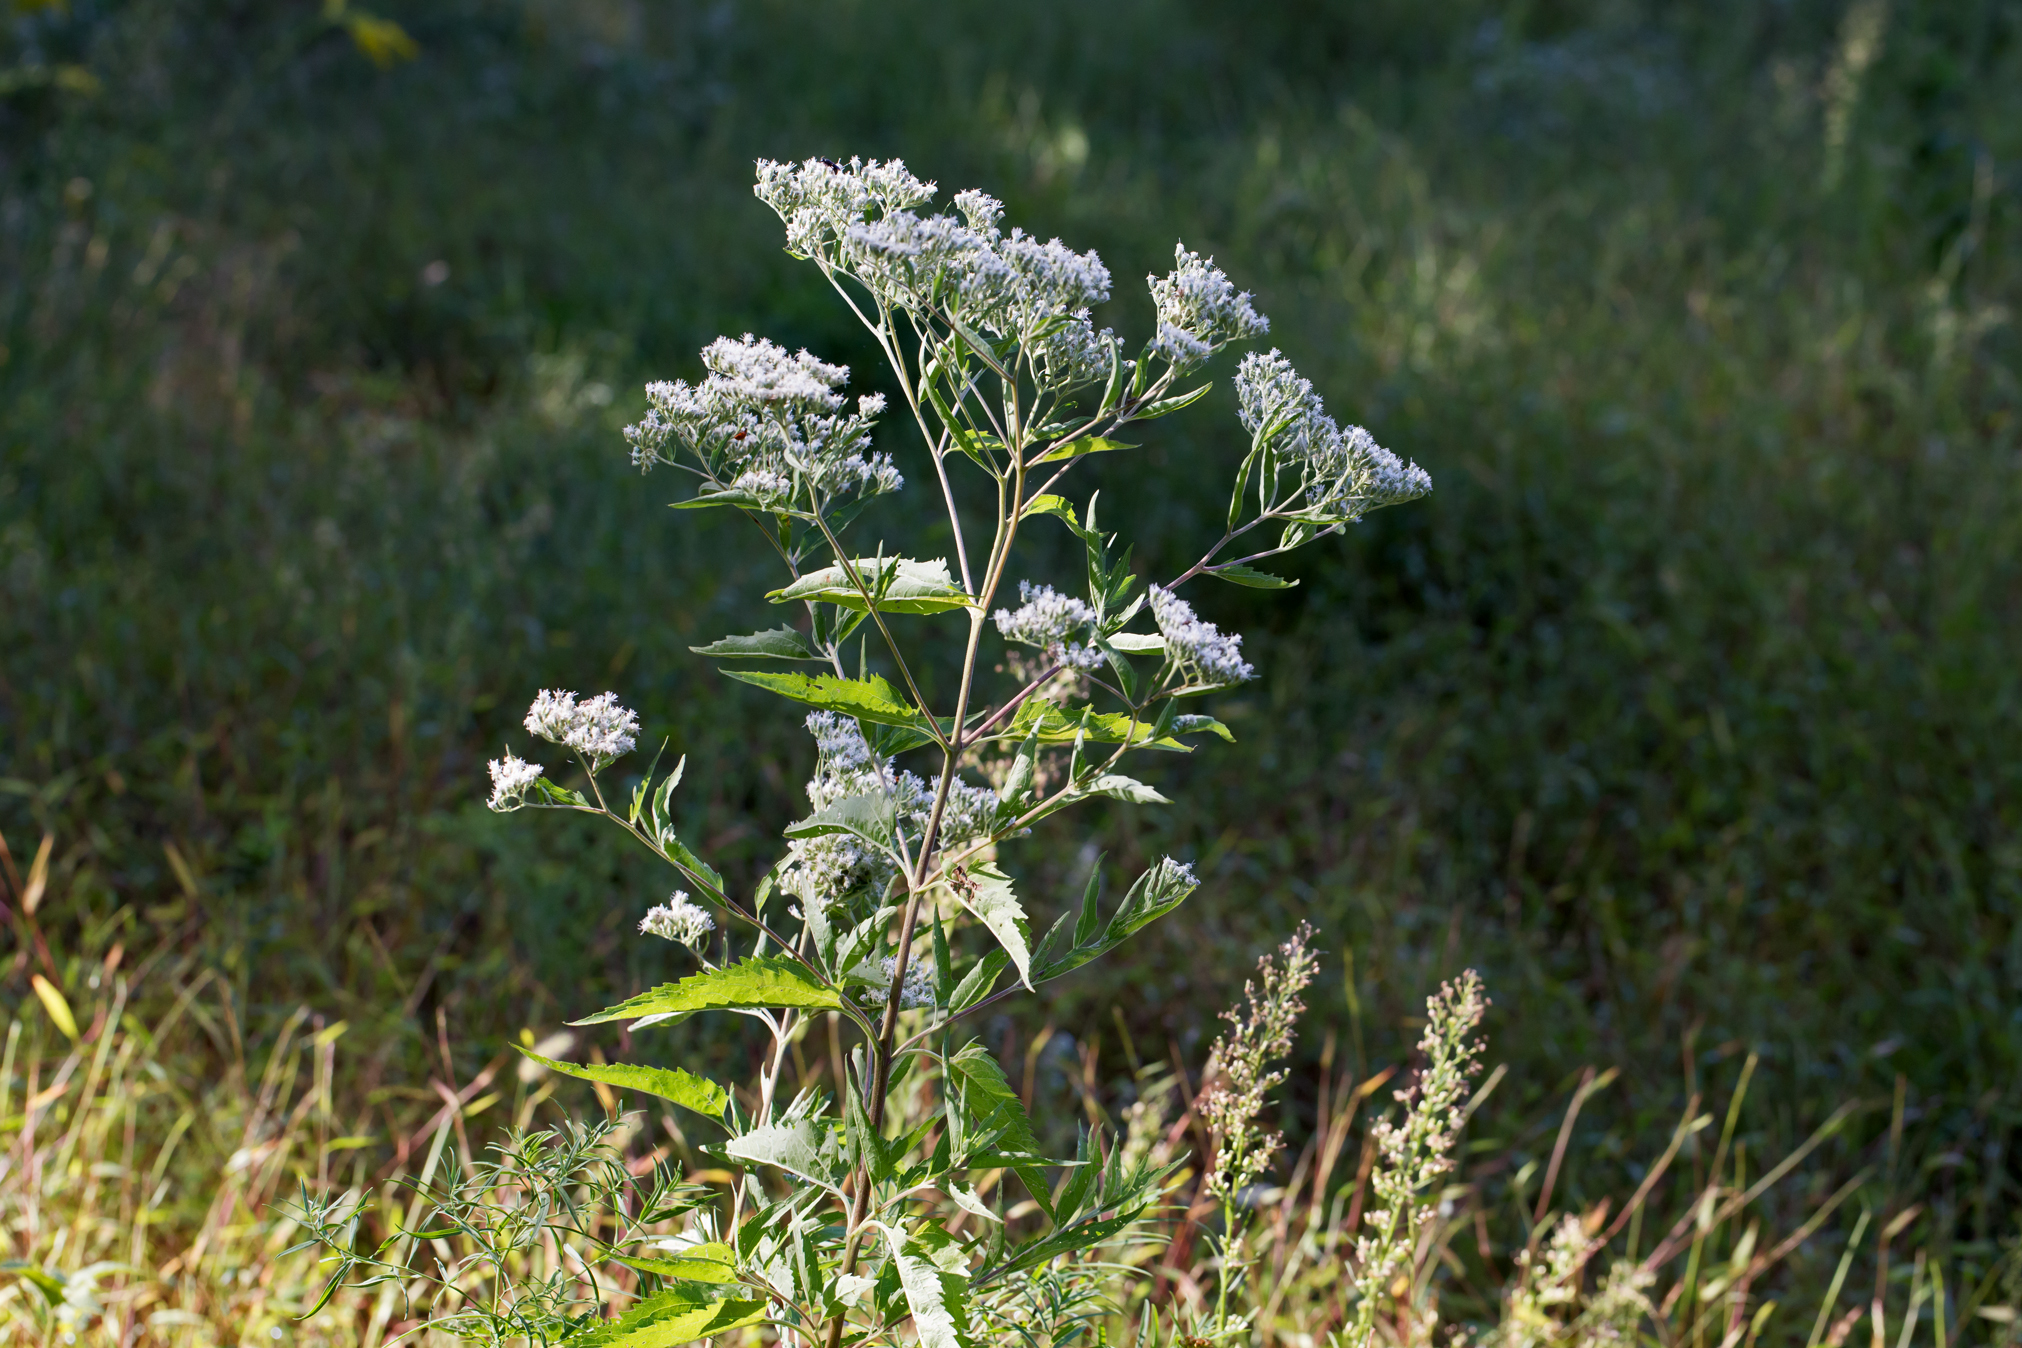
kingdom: Plantae
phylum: Tracheophyta
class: Magnoliopsida
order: Asterales
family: Asteraceae
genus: Eupatorium
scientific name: Eupatorium serotinum
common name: Late boneset
